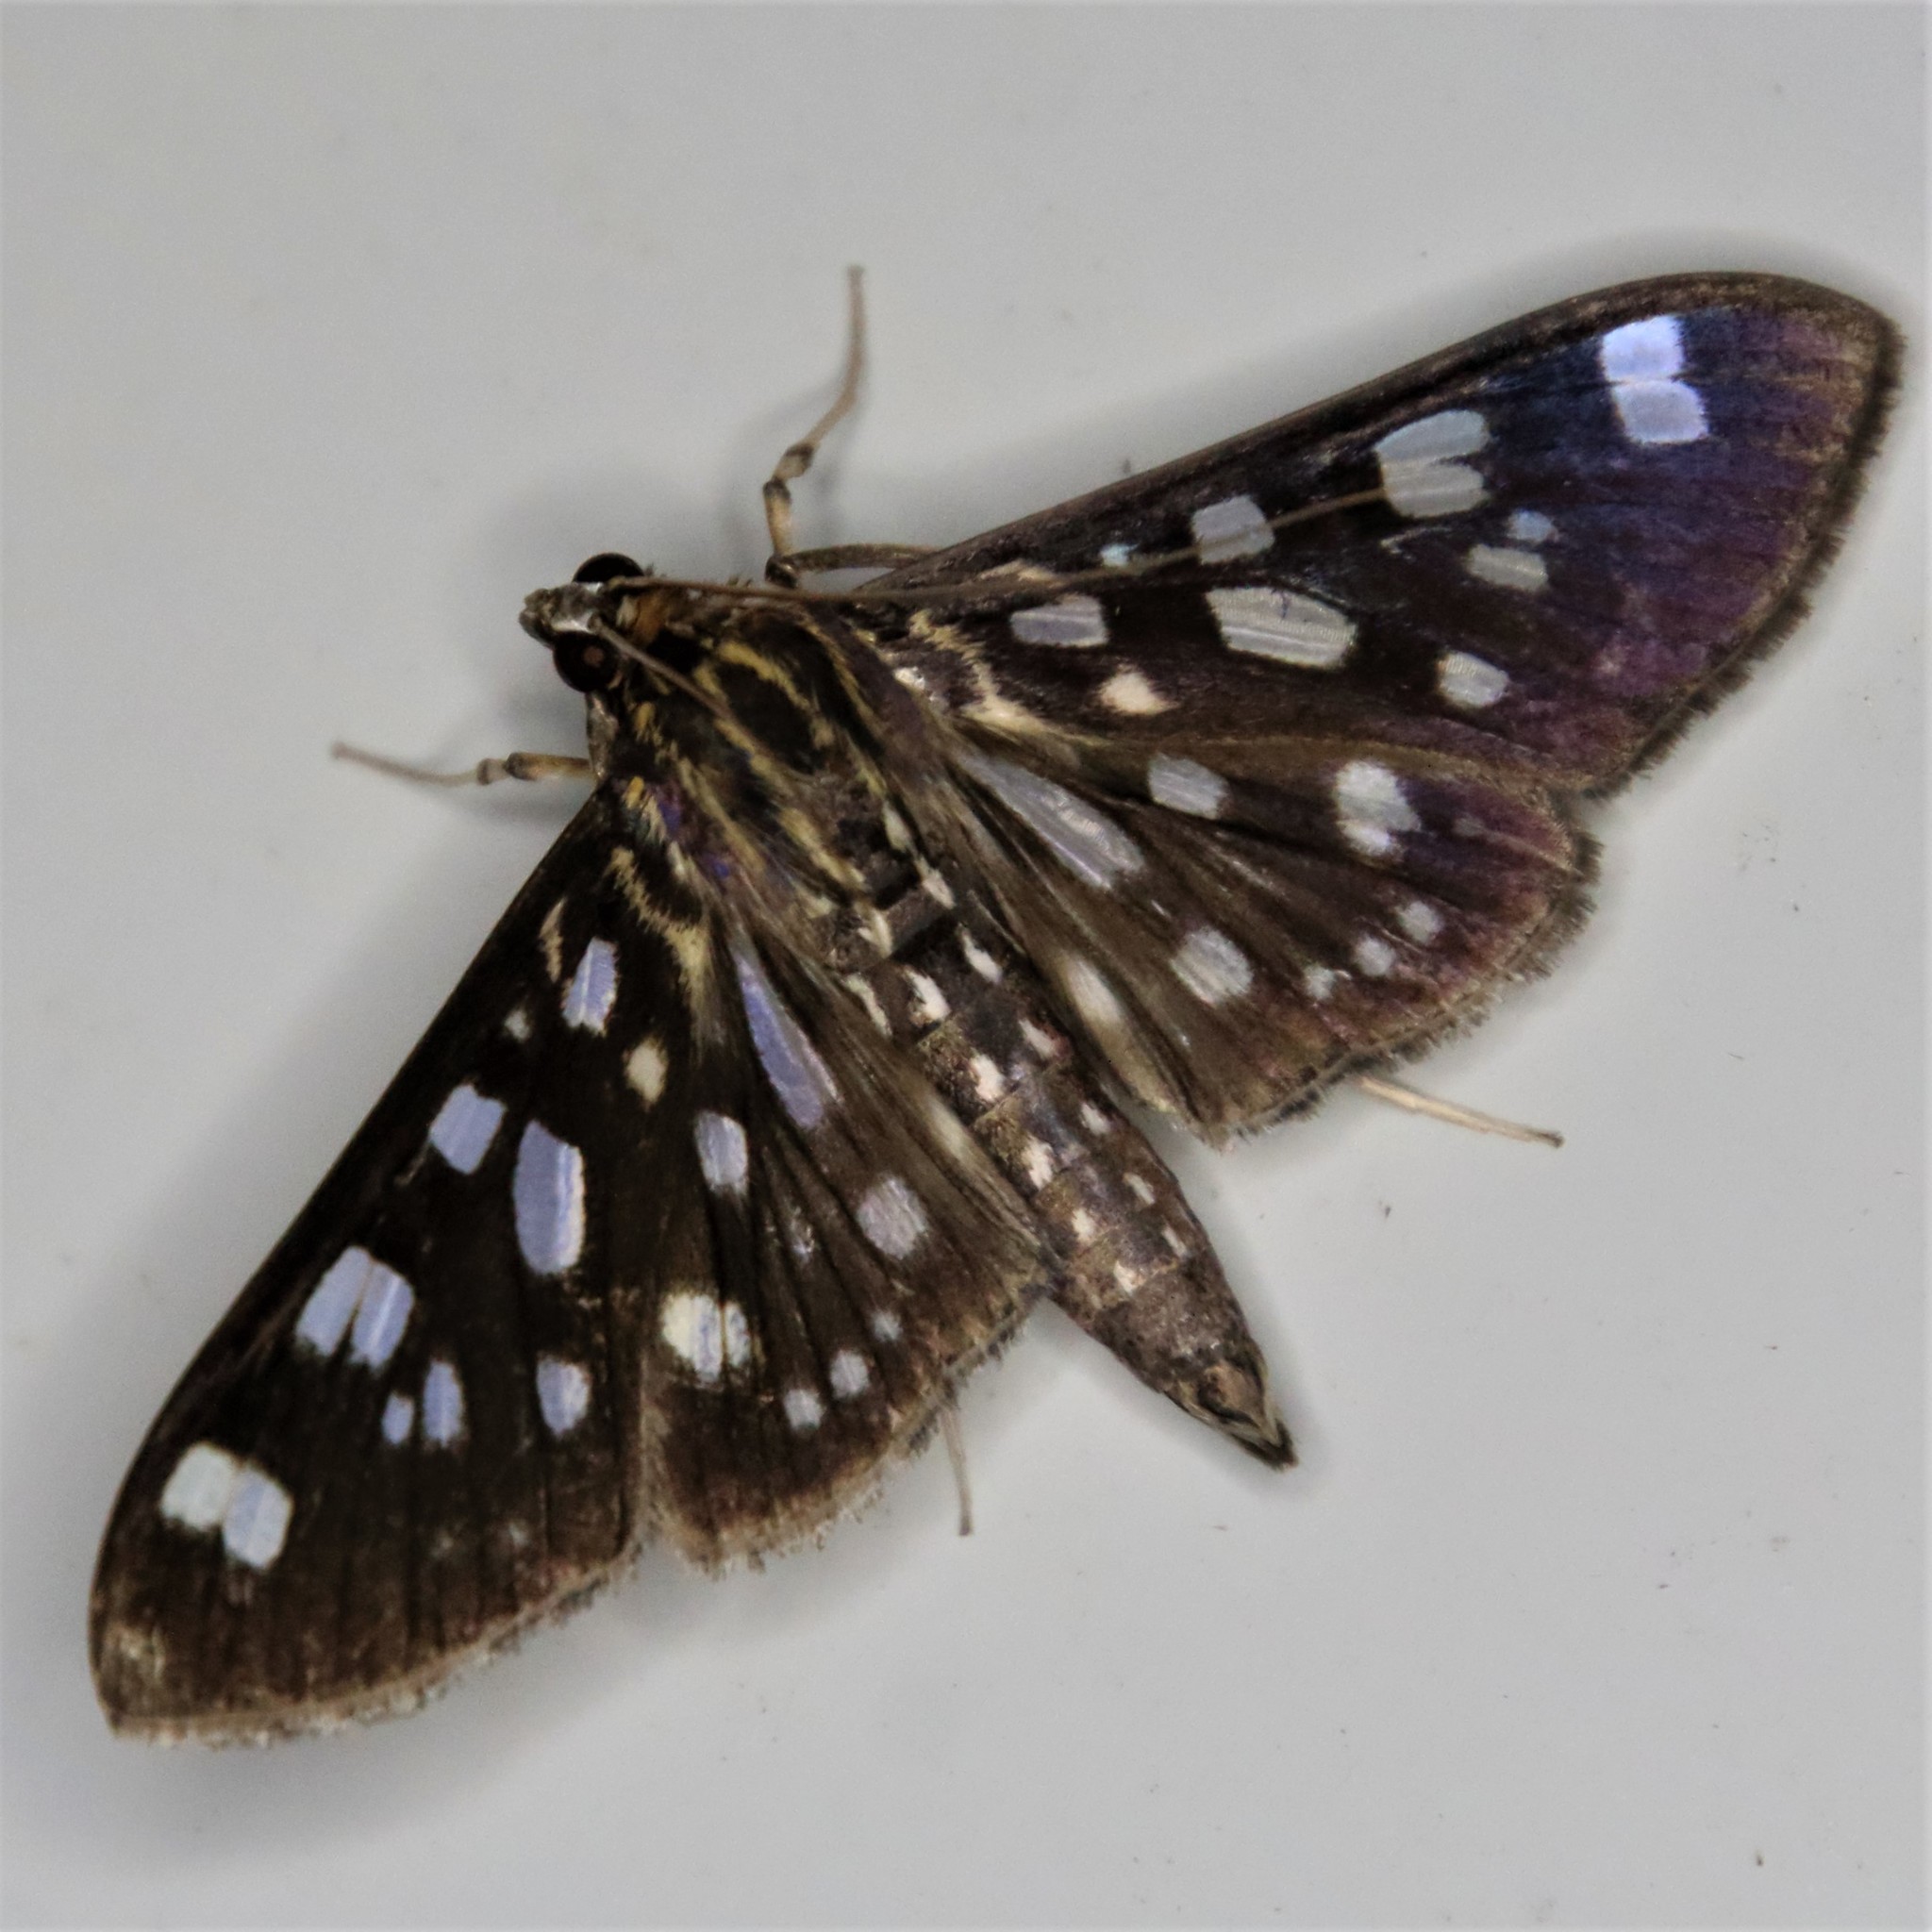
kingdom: Animalia
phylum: Arthropoda
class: Insecta
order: Lepidoptera
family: Crambidae
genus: Pygospila
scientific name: Pygospila tyres
